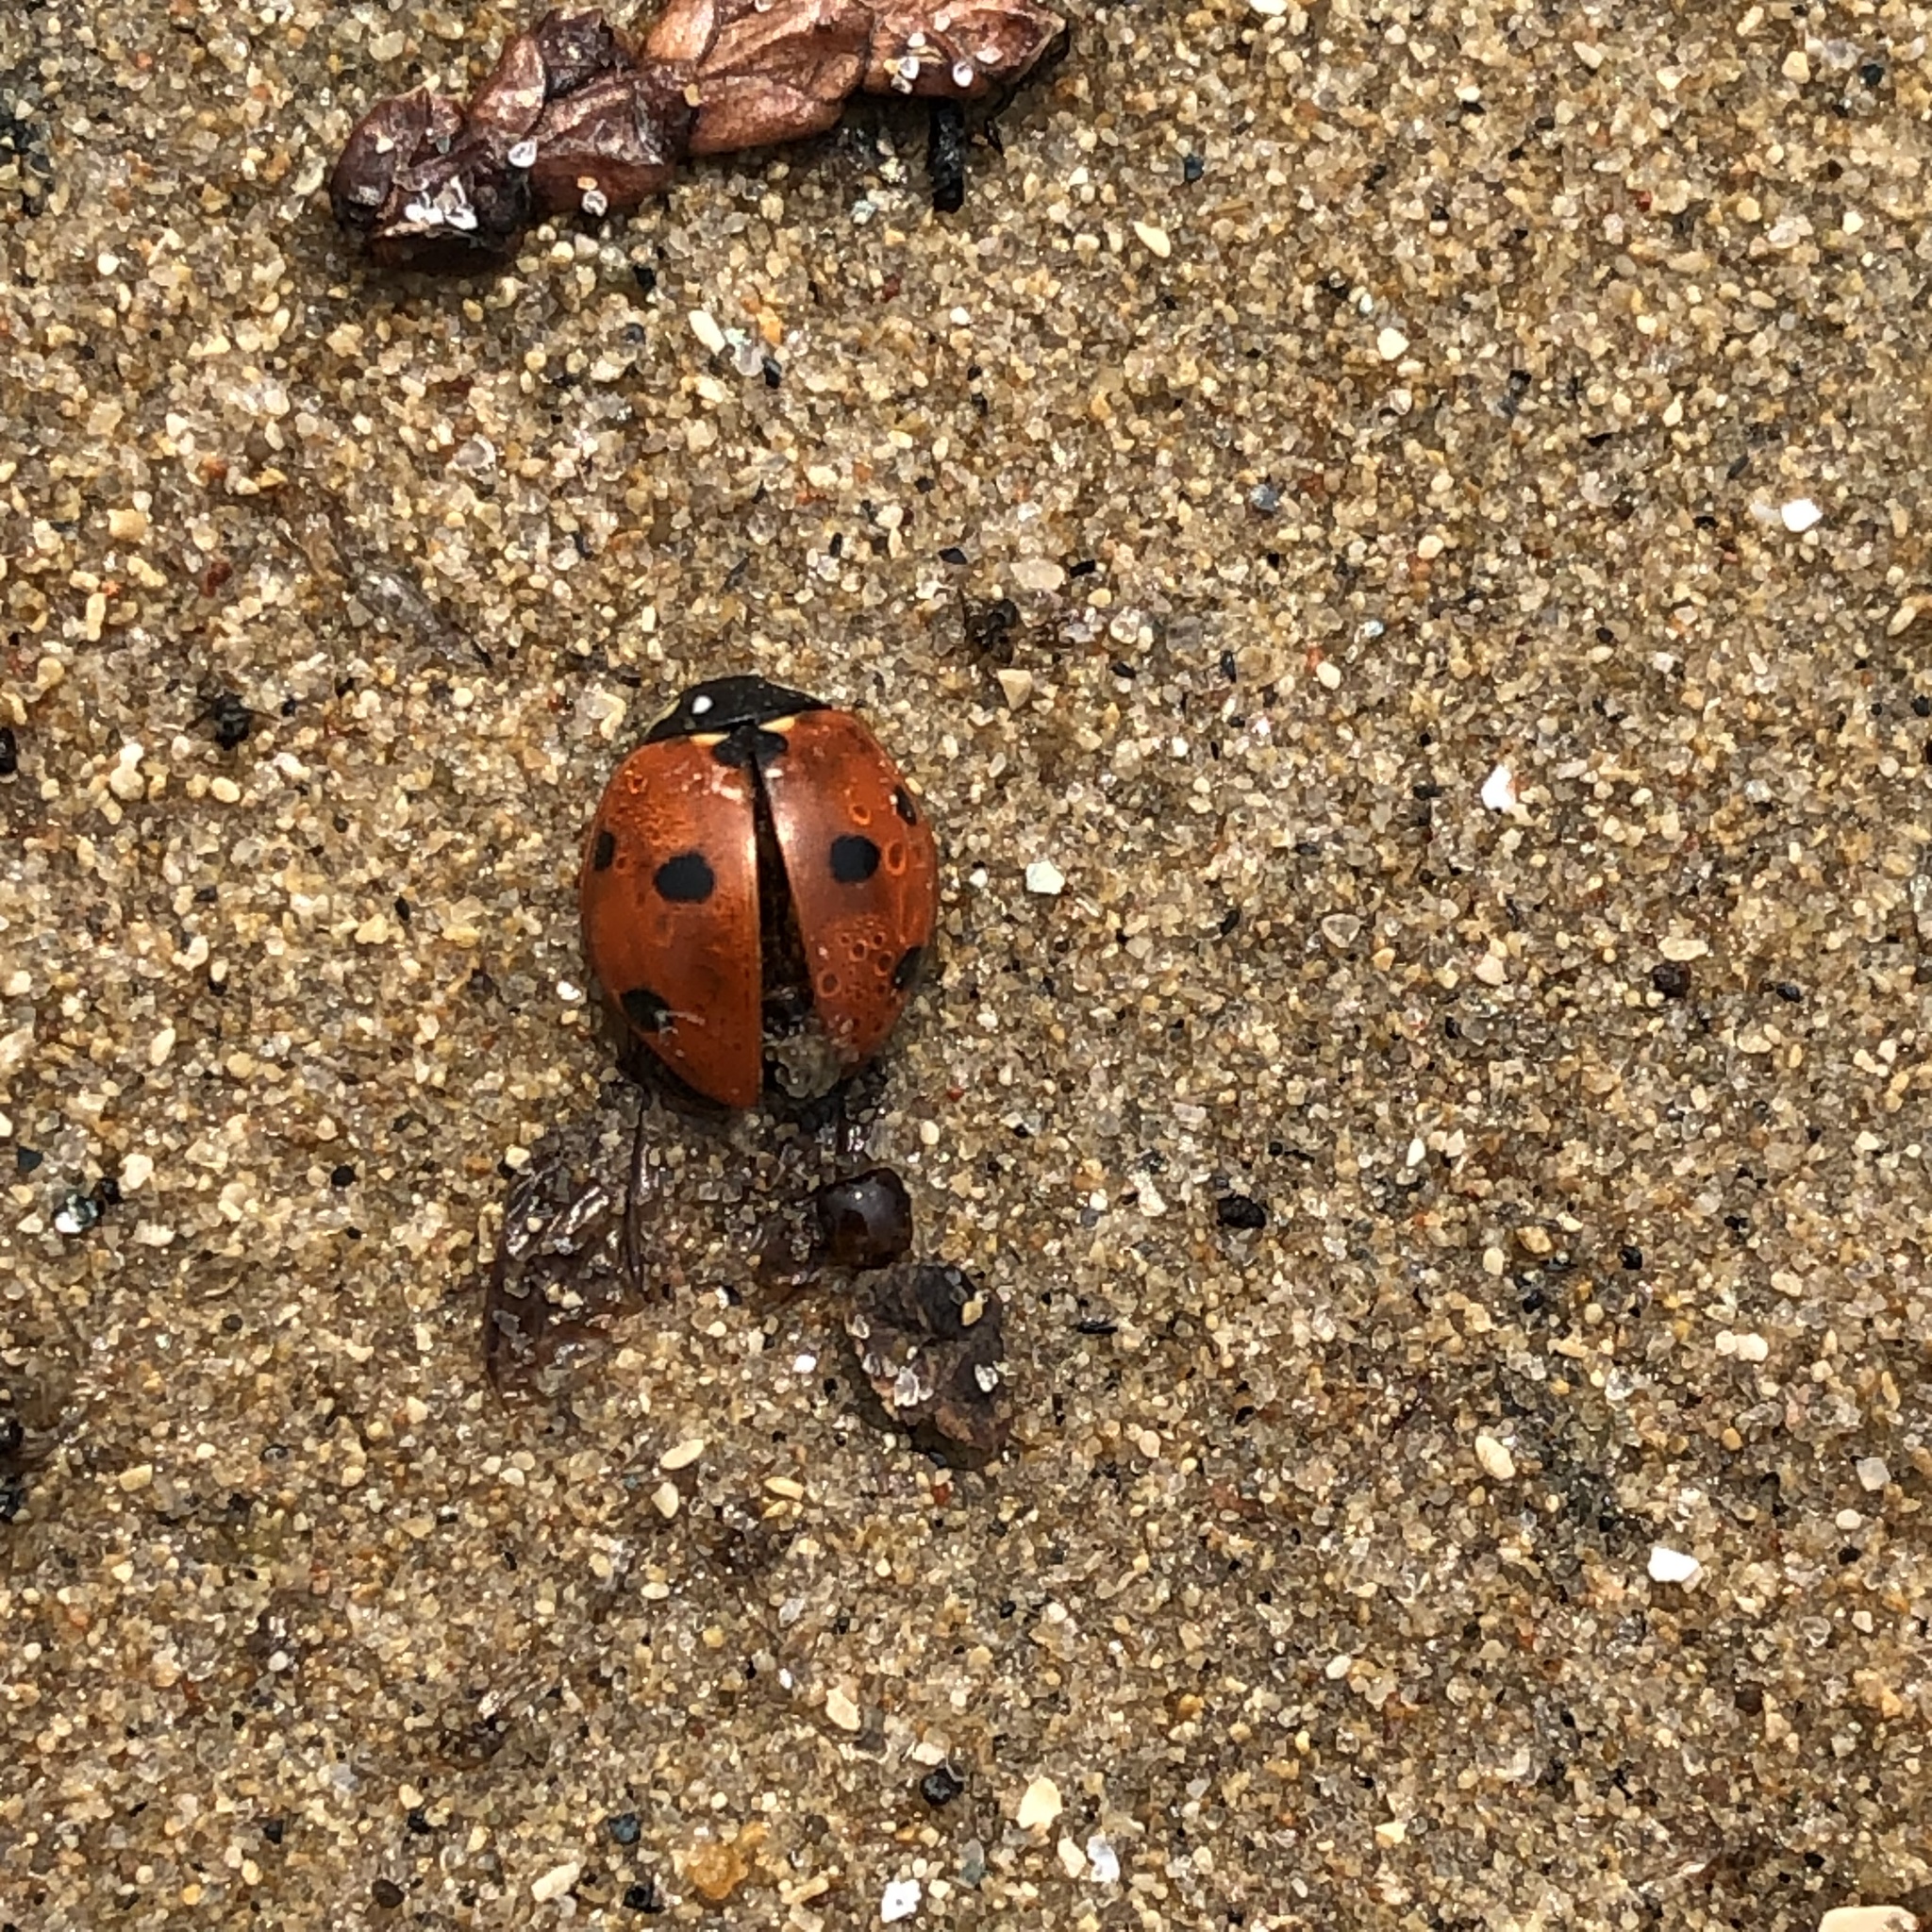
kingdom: Animalia
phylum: Arthropoda
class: Insecta
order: Coleoptera
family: Coccinellidae
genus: Coccinella
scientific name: Coccinella septempunctata
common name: Sevenspotted lady beetle
